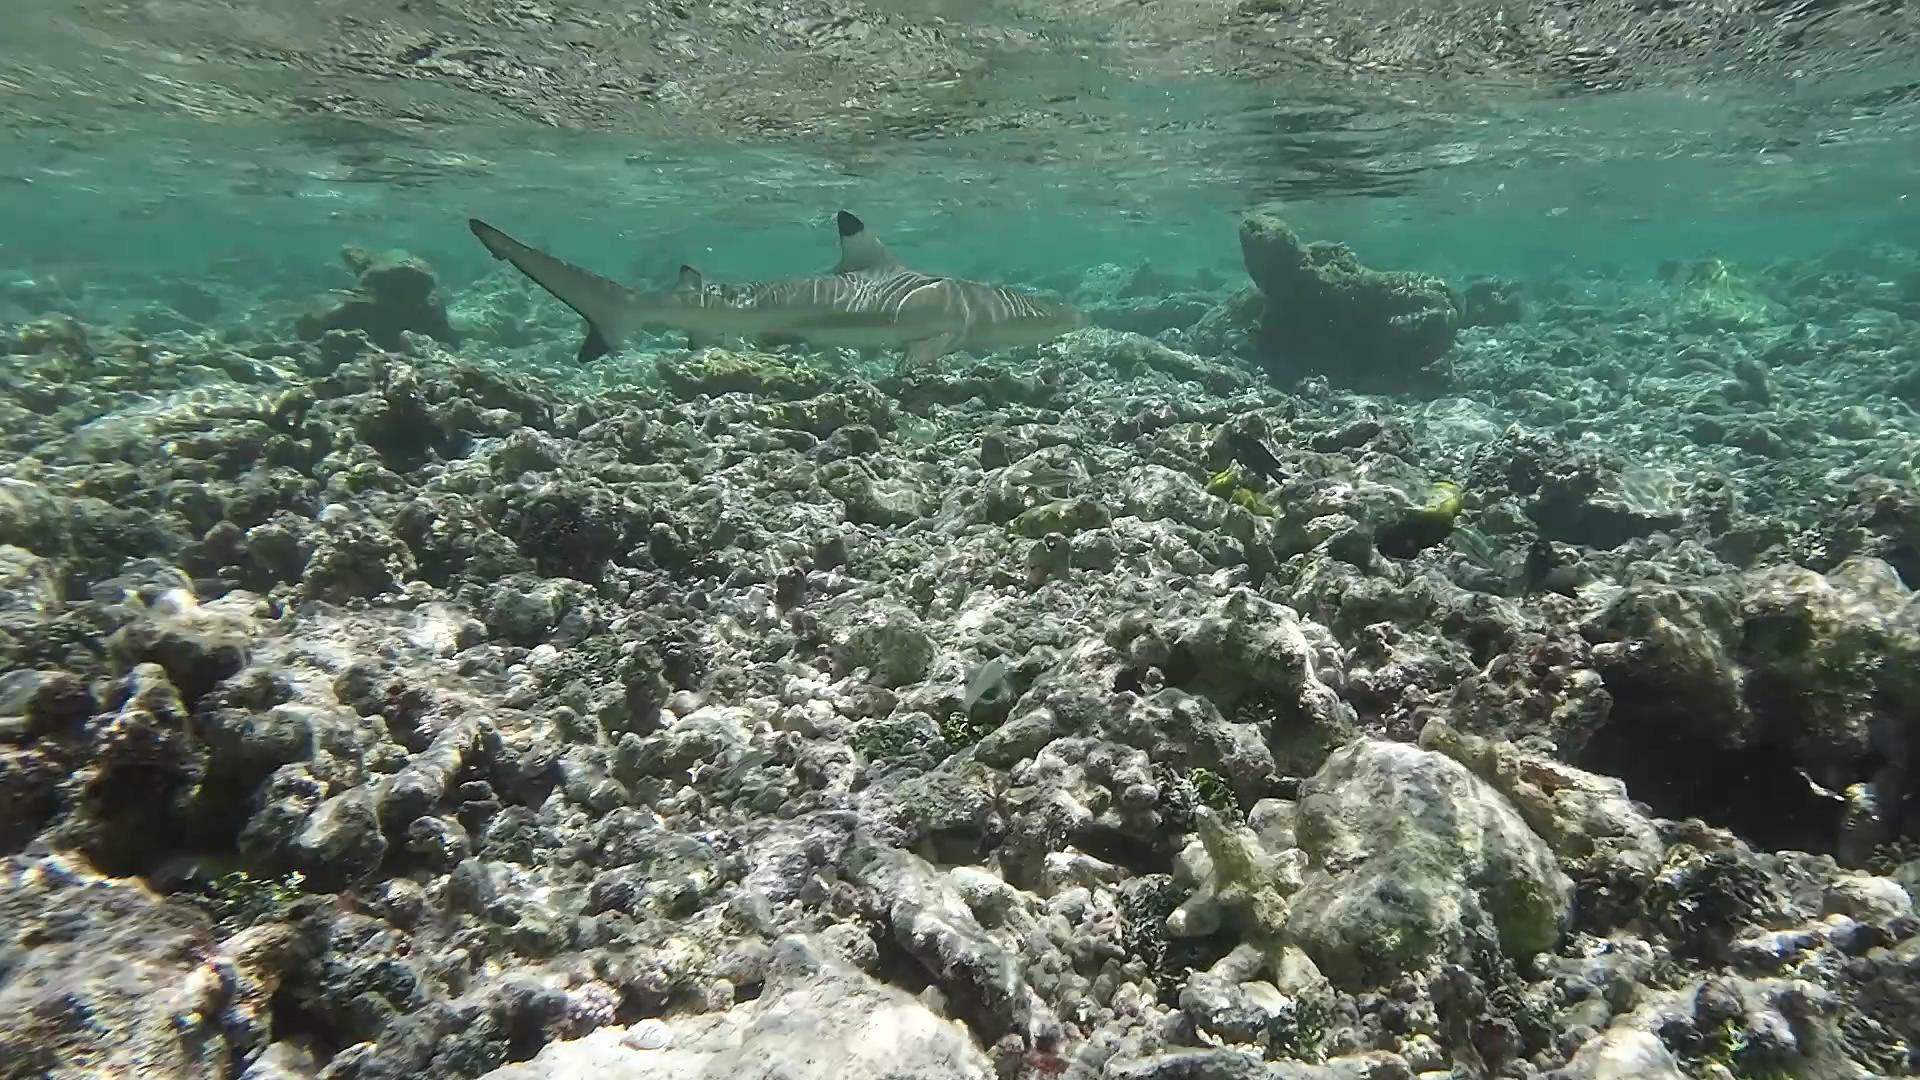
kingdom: Animalia
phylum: Chordata
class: Elasmobranchii
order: Carcharhiniformes
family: Carcharhinidae
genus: Carcharhinus
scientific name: Carcharhinus melanopterus
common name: Blacktip reef shark
